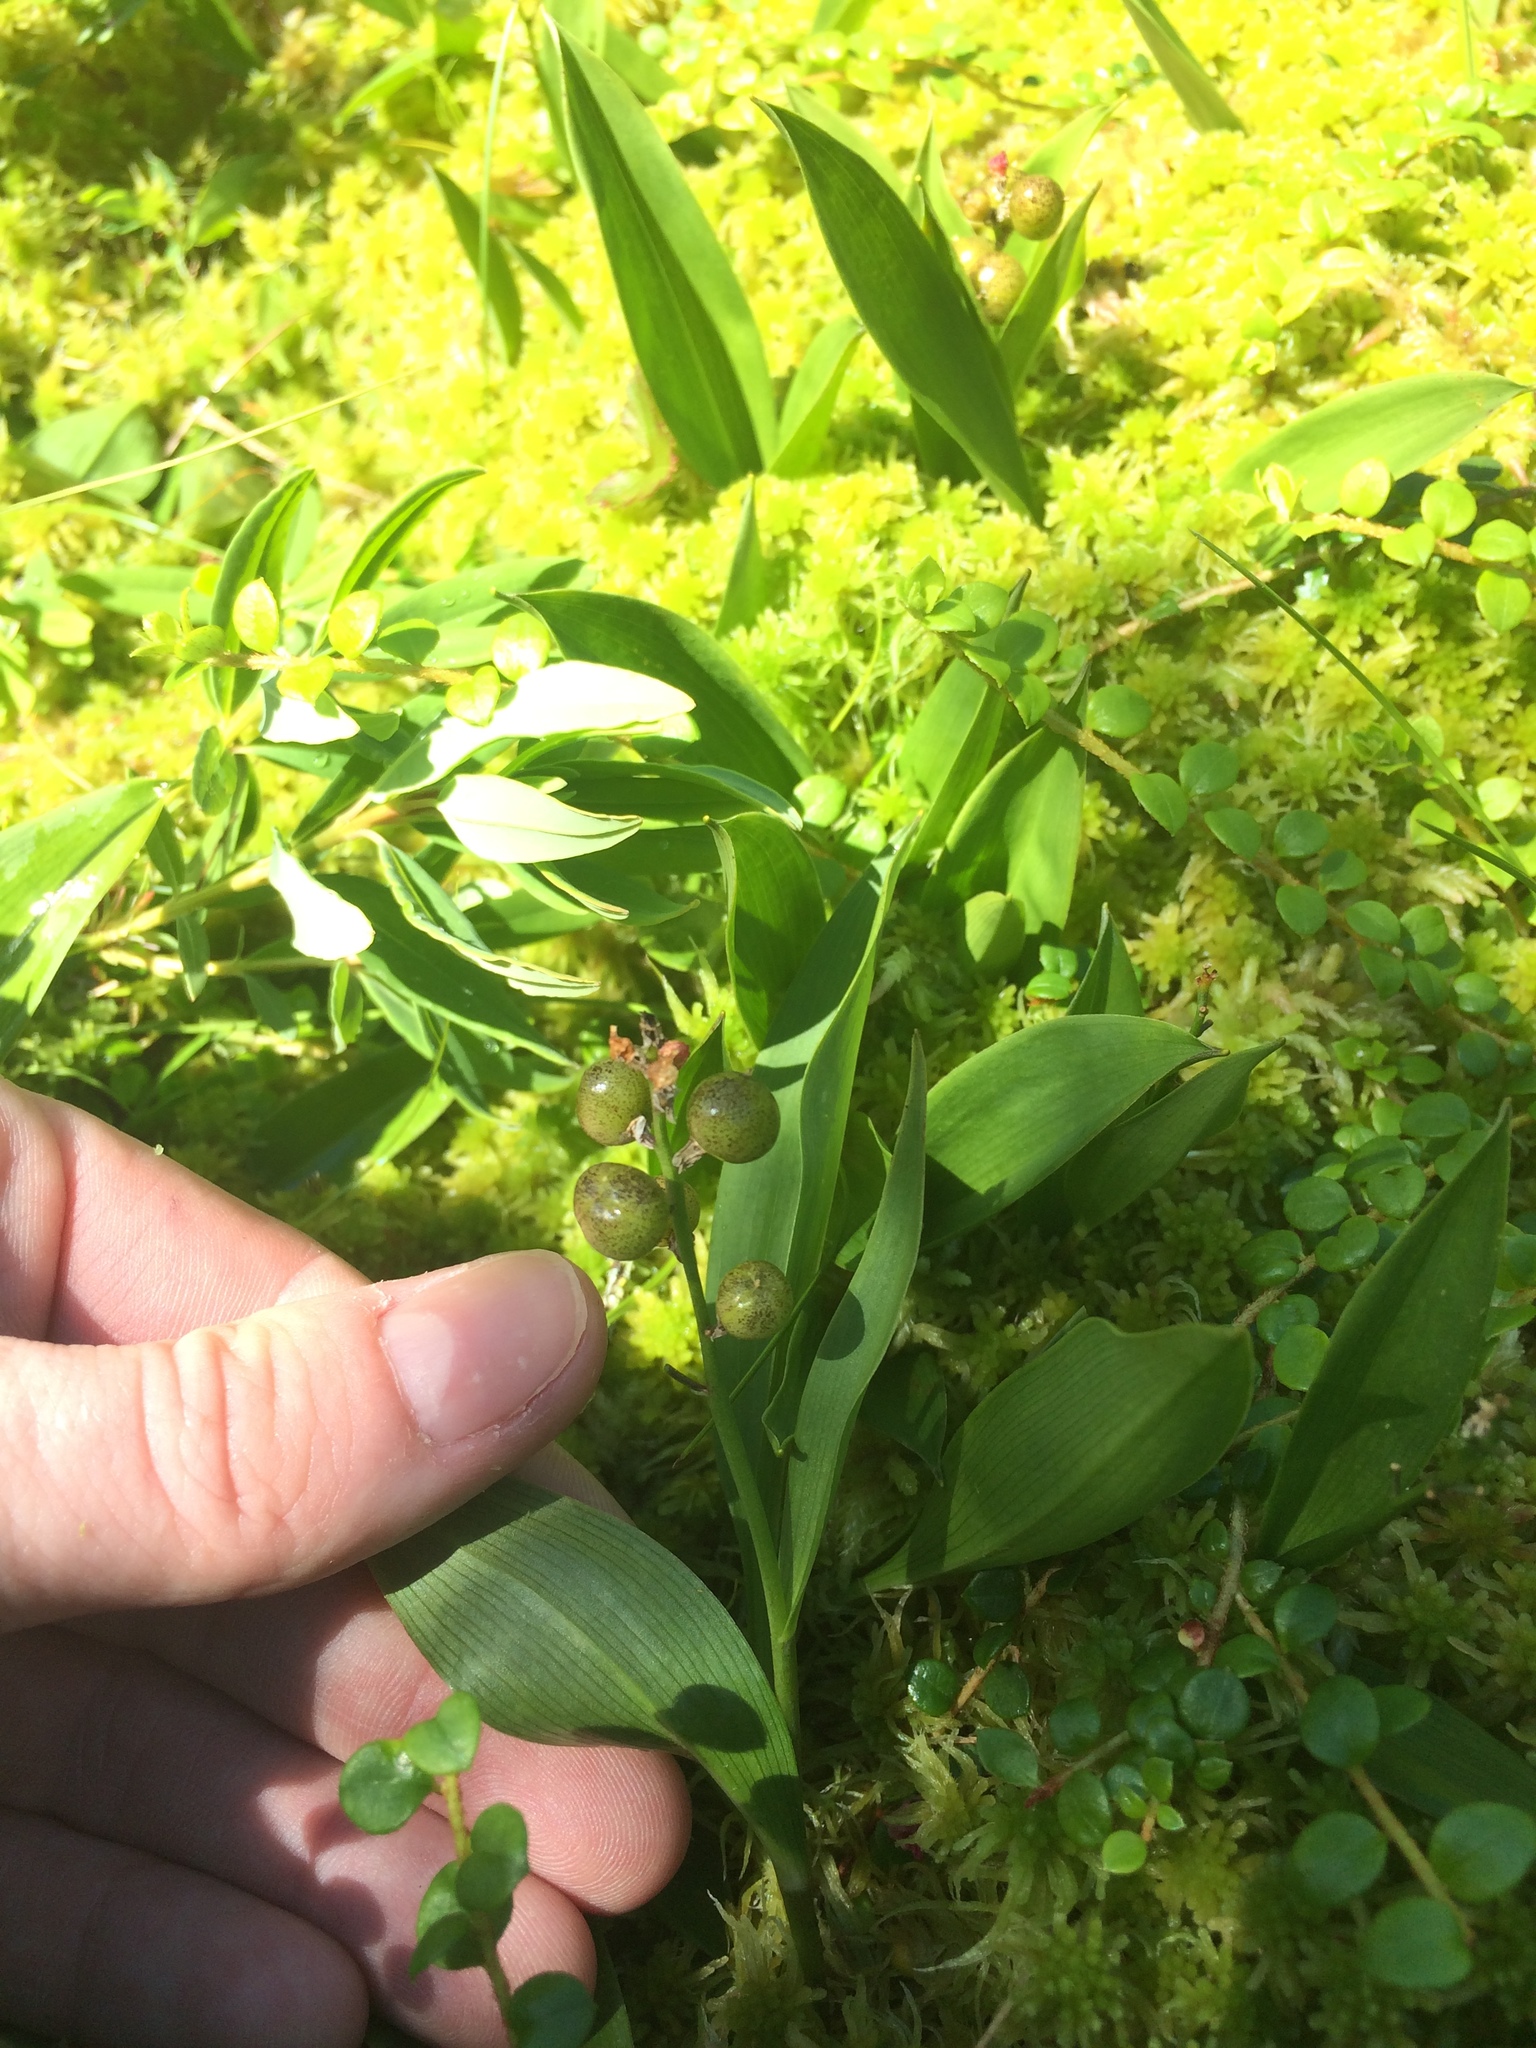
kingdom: Plantae
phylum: Tracheophyta
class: Liliopsida
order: Asparagales
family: Asparagaceae
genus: Maianthemum
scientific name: Maianthemum trifolium
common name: Swamp false solomon's seal
